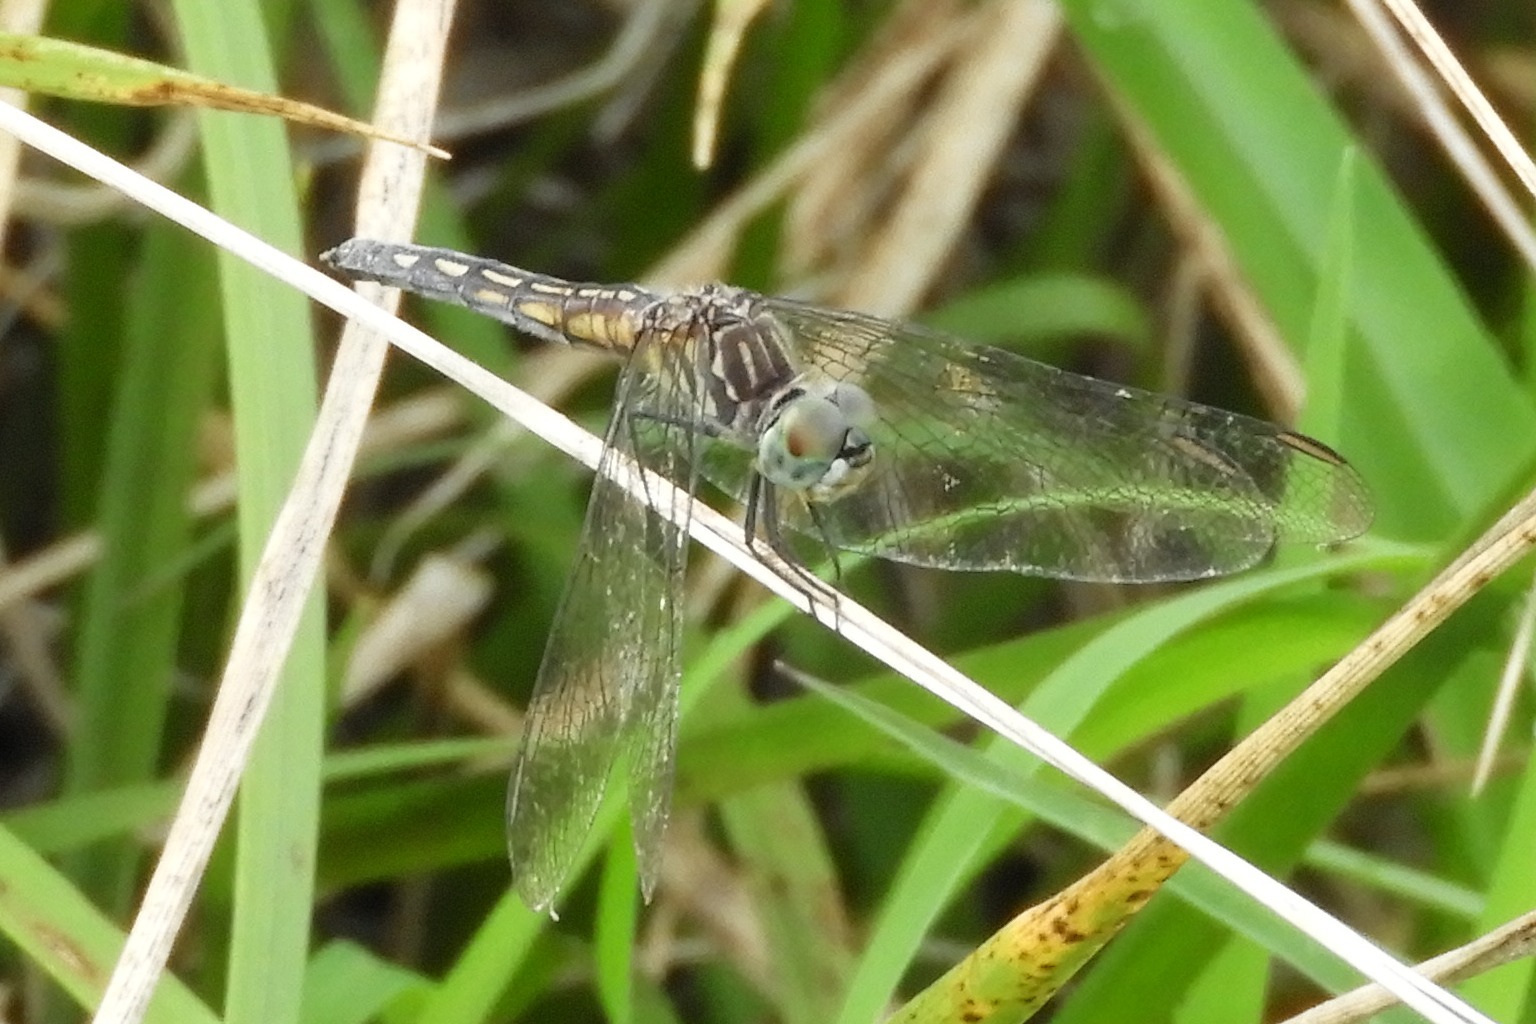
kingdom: Animalia
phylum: Arthropoda
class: Insecta
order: Odonata
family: Libellulidae
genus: Pachydiplax
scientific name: Pachydiplax longipennis
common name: Blue dasher
